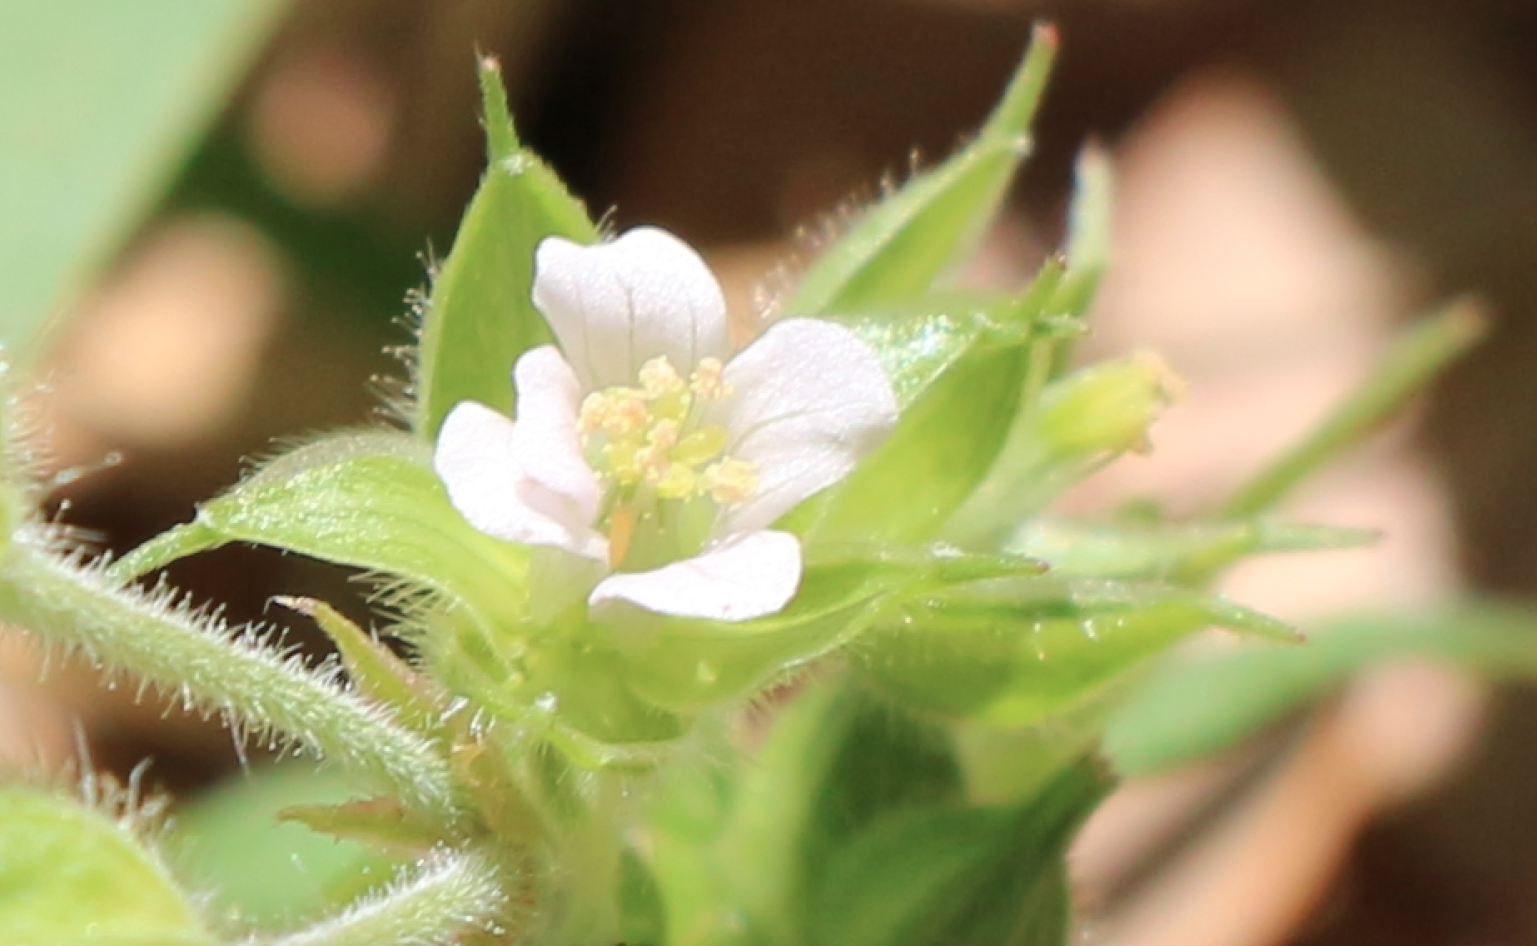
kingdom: Plantae
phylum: Tracheophyta
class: Magnoliopsida
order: Geraniales
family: Geraniaceae
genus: Geranium
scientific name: Geranium carolinianum
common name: Carolina crane's-bill
